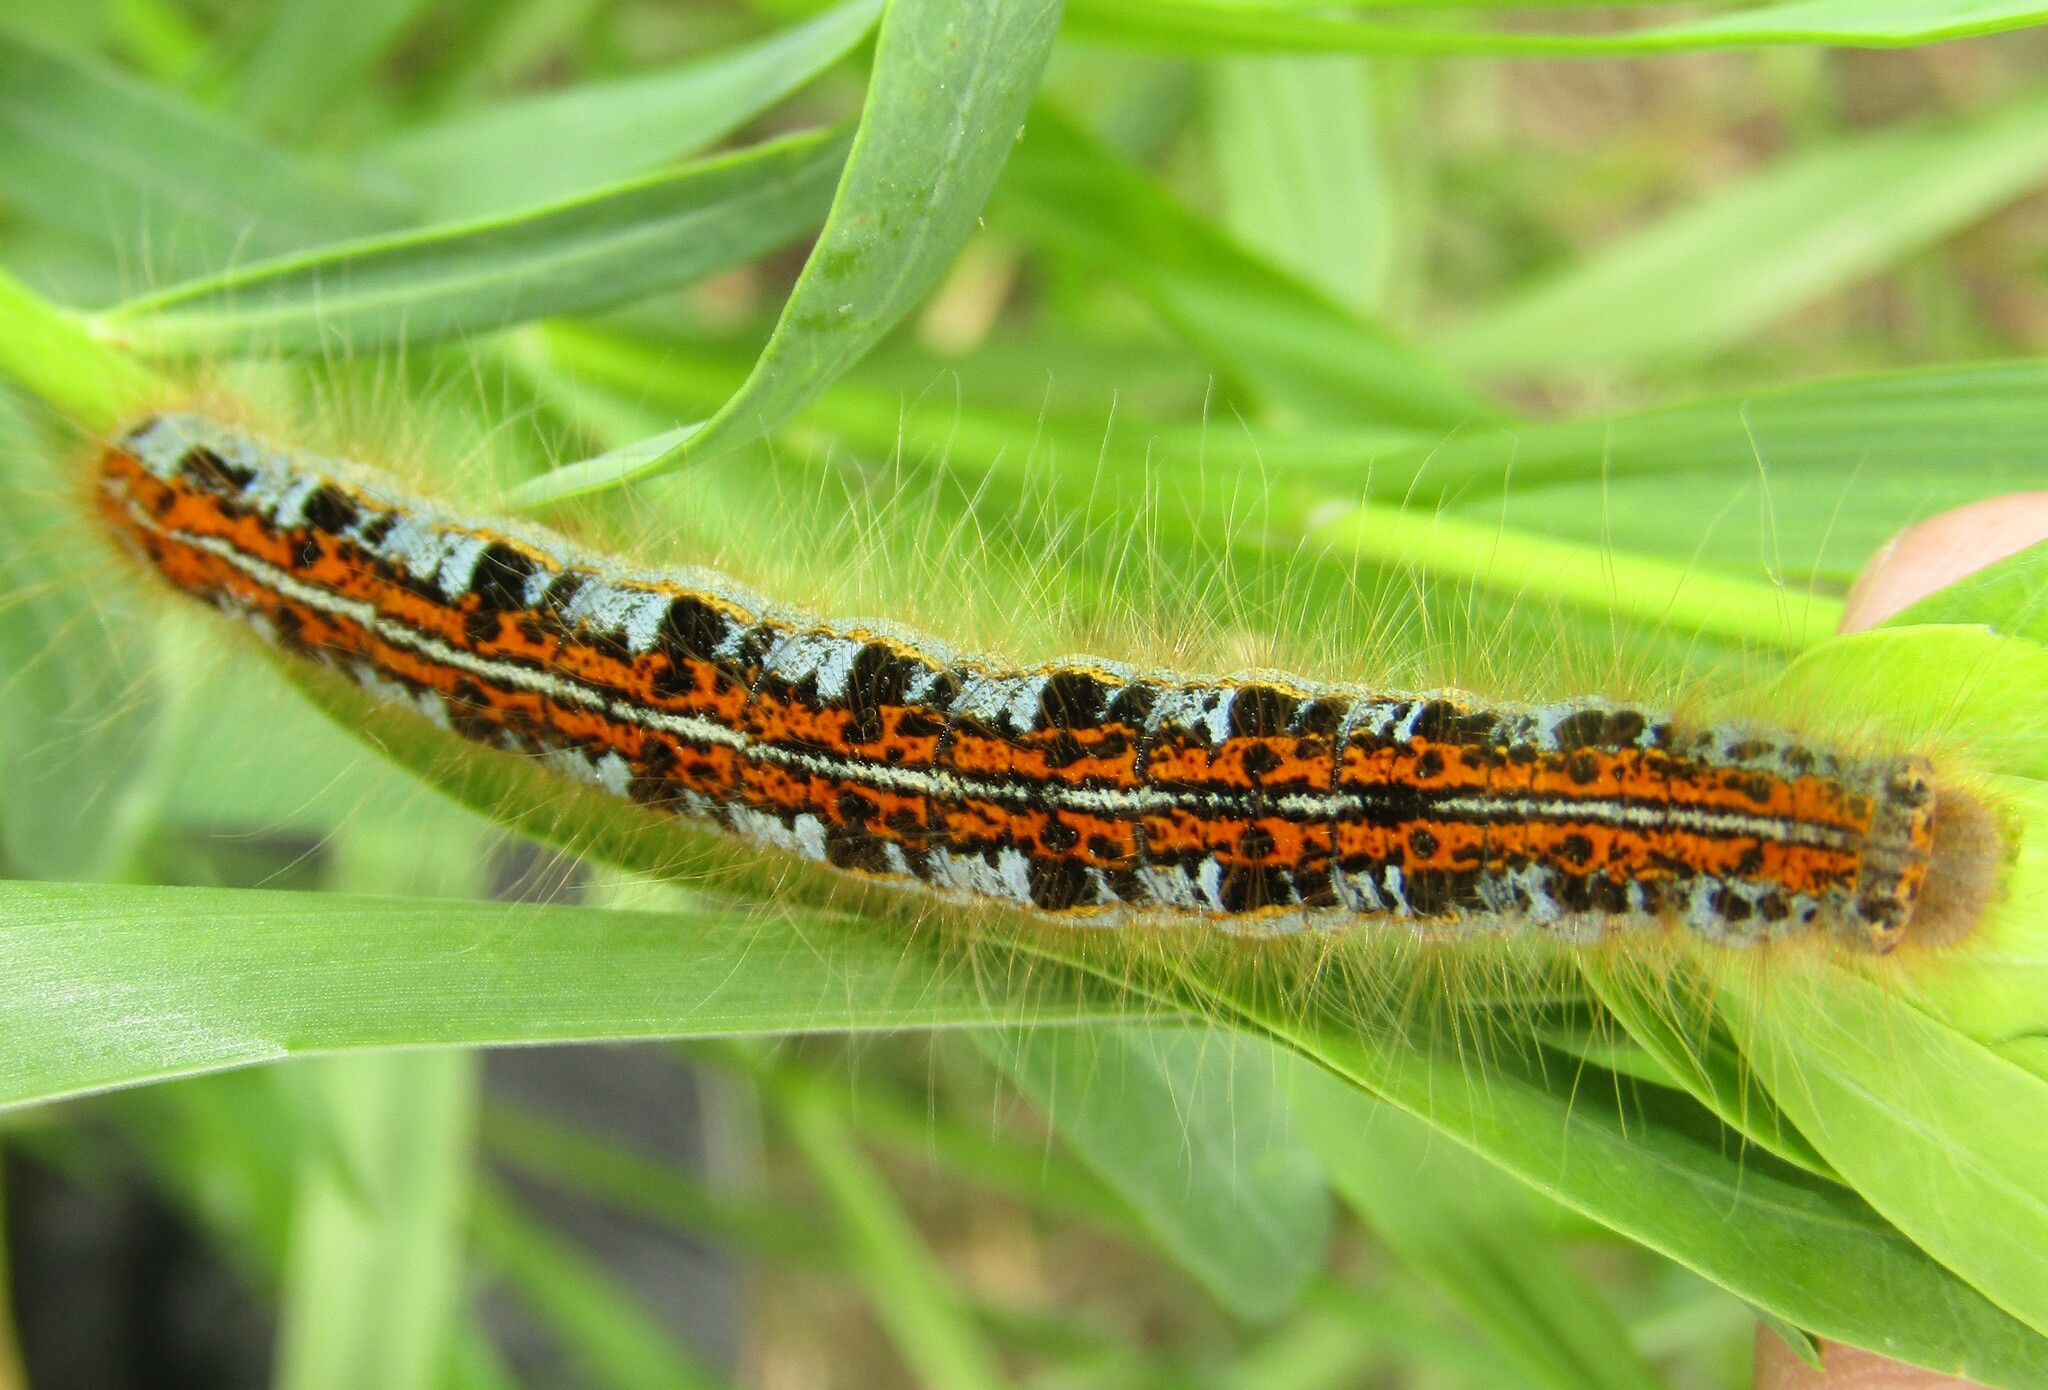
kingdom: Animalia
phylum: Arthropoda
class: Insecta
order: Lepidoptera
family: Lasiocampidae
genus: Malacosoma
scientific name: Malacosoma castrense
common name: Ground lackey
